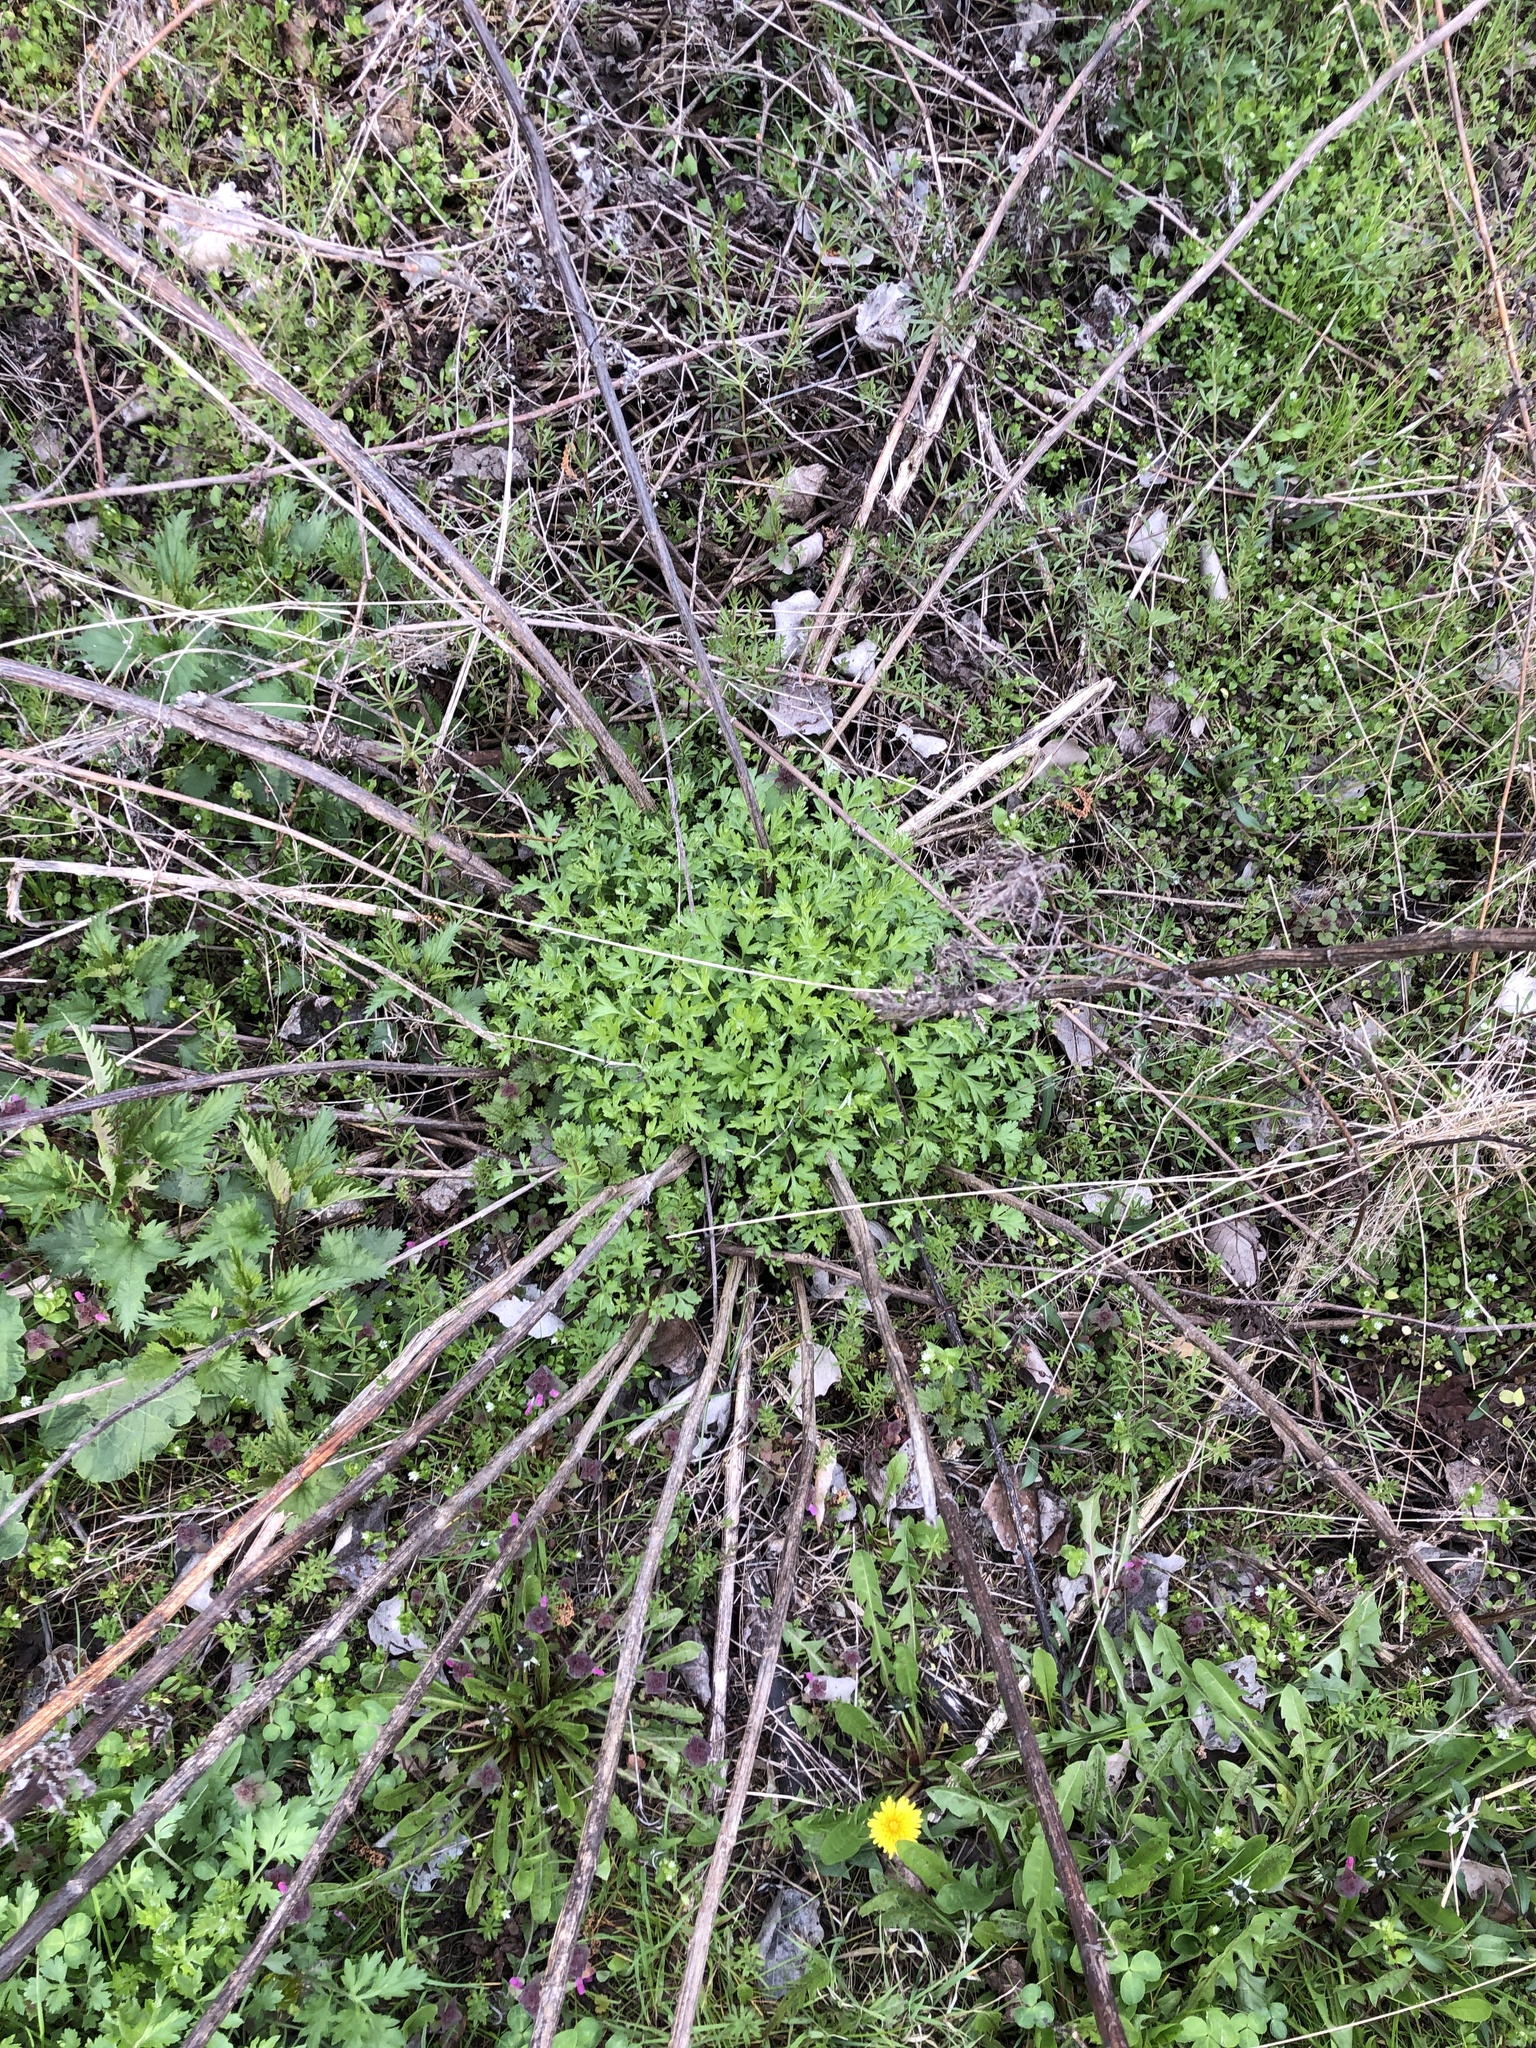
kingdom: Plantae
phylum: Tracheophyta
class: Magnoliopsida
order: Asterales
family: Asteraceae
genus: Artemisia
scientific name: Artemisia vulgaris
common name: Mugwort
